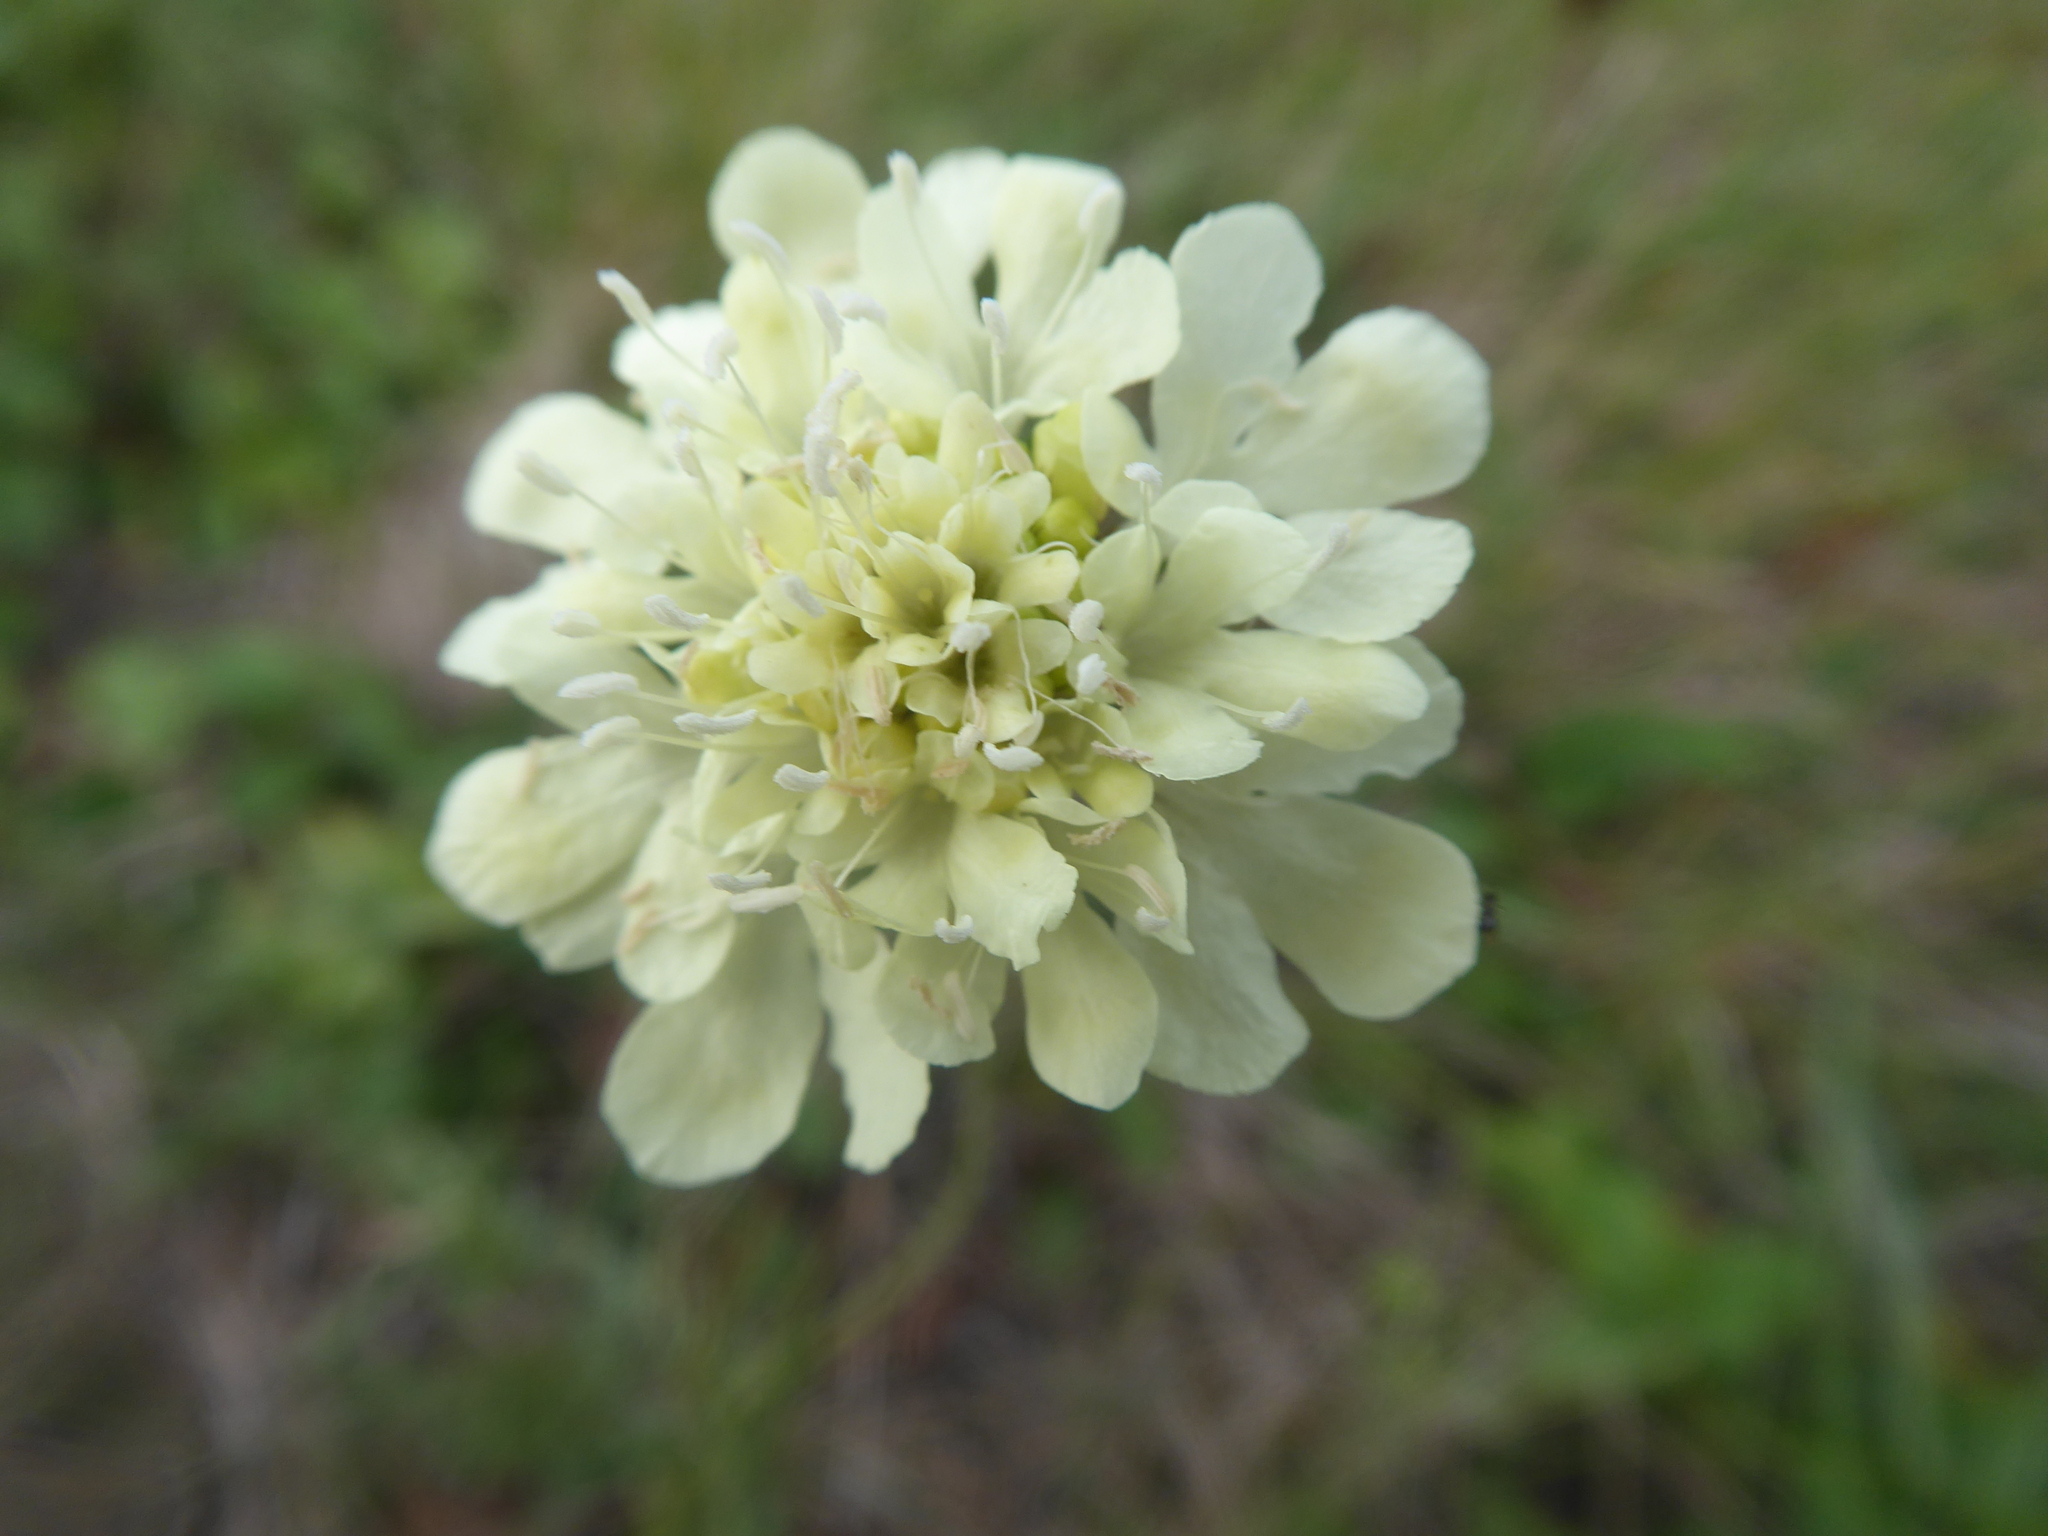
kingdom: Plantae
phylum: Tracheophyta
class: Magnoliopsida
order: Dipsacales
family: Caprifoliaceae
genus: Scabiosa
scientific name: Scabiosa ochroleuca
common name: Cream pincushions
